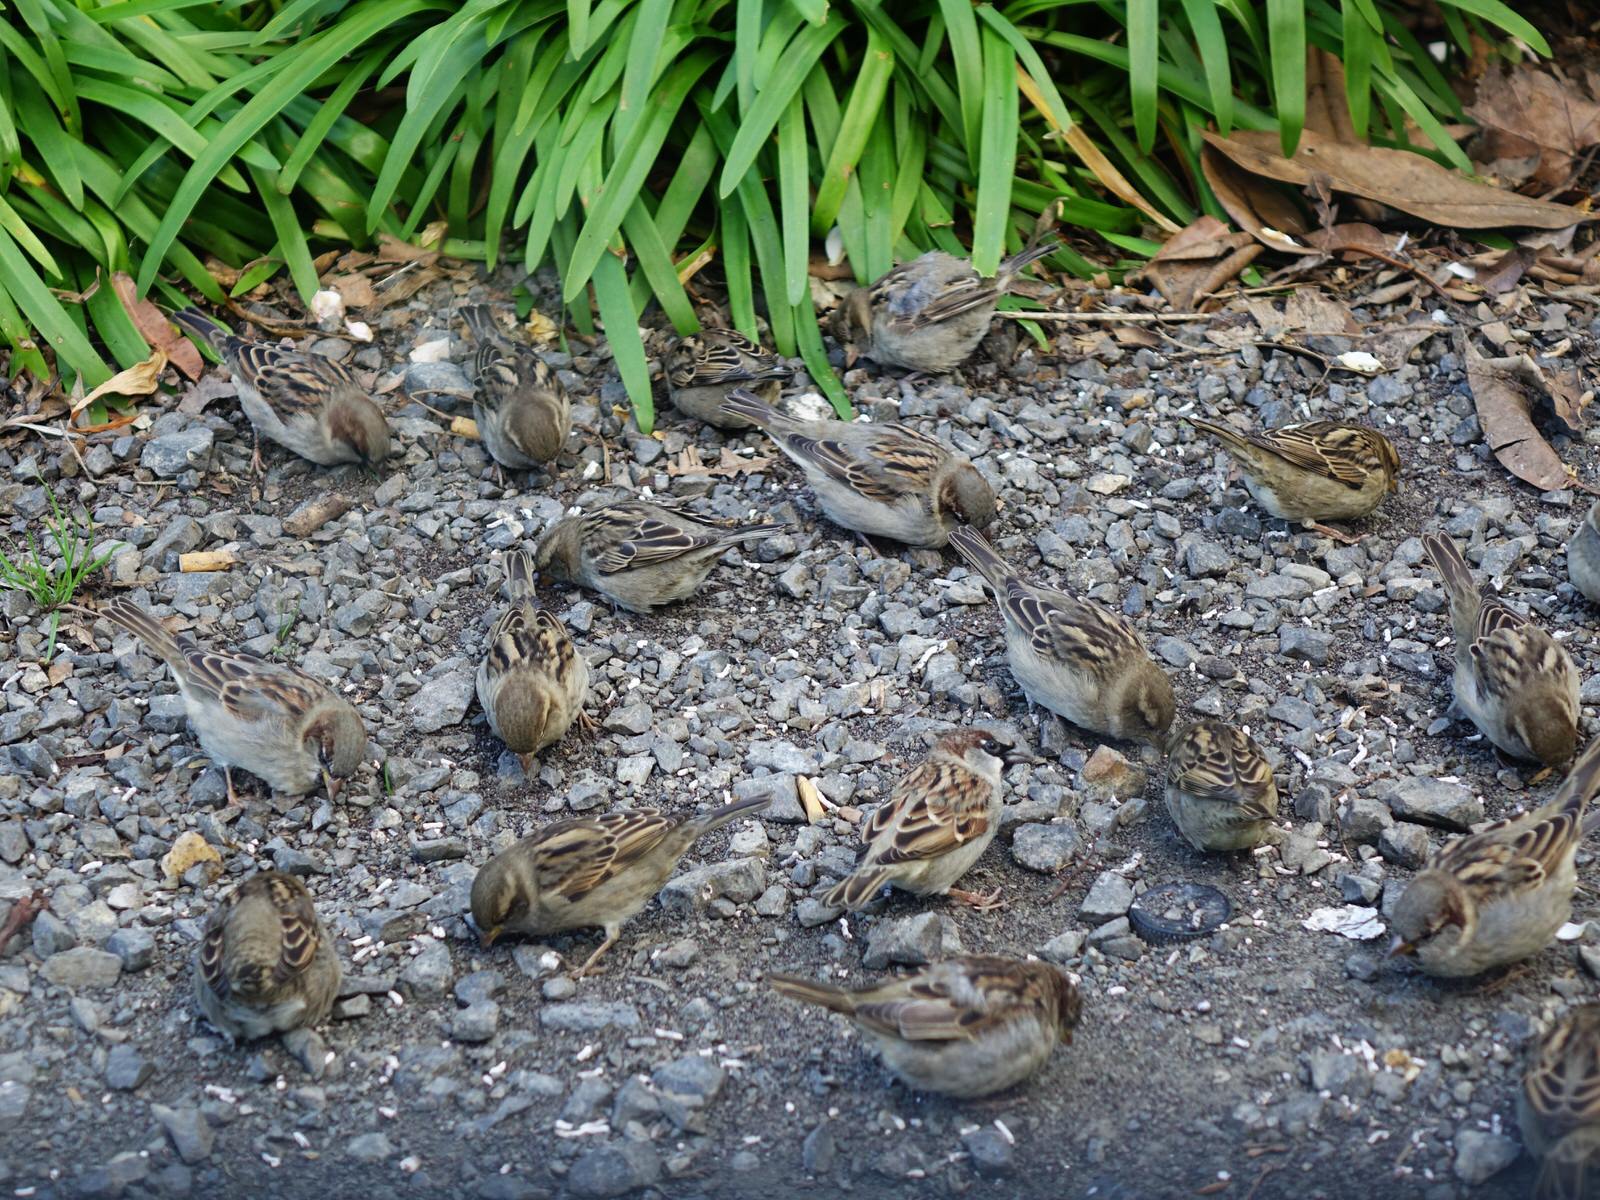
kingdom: Animalia
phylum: Chordata
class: Aves
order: Passeriformes
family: Passeridae
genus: Passer
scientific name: Passer domesticus
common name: House sparrow
